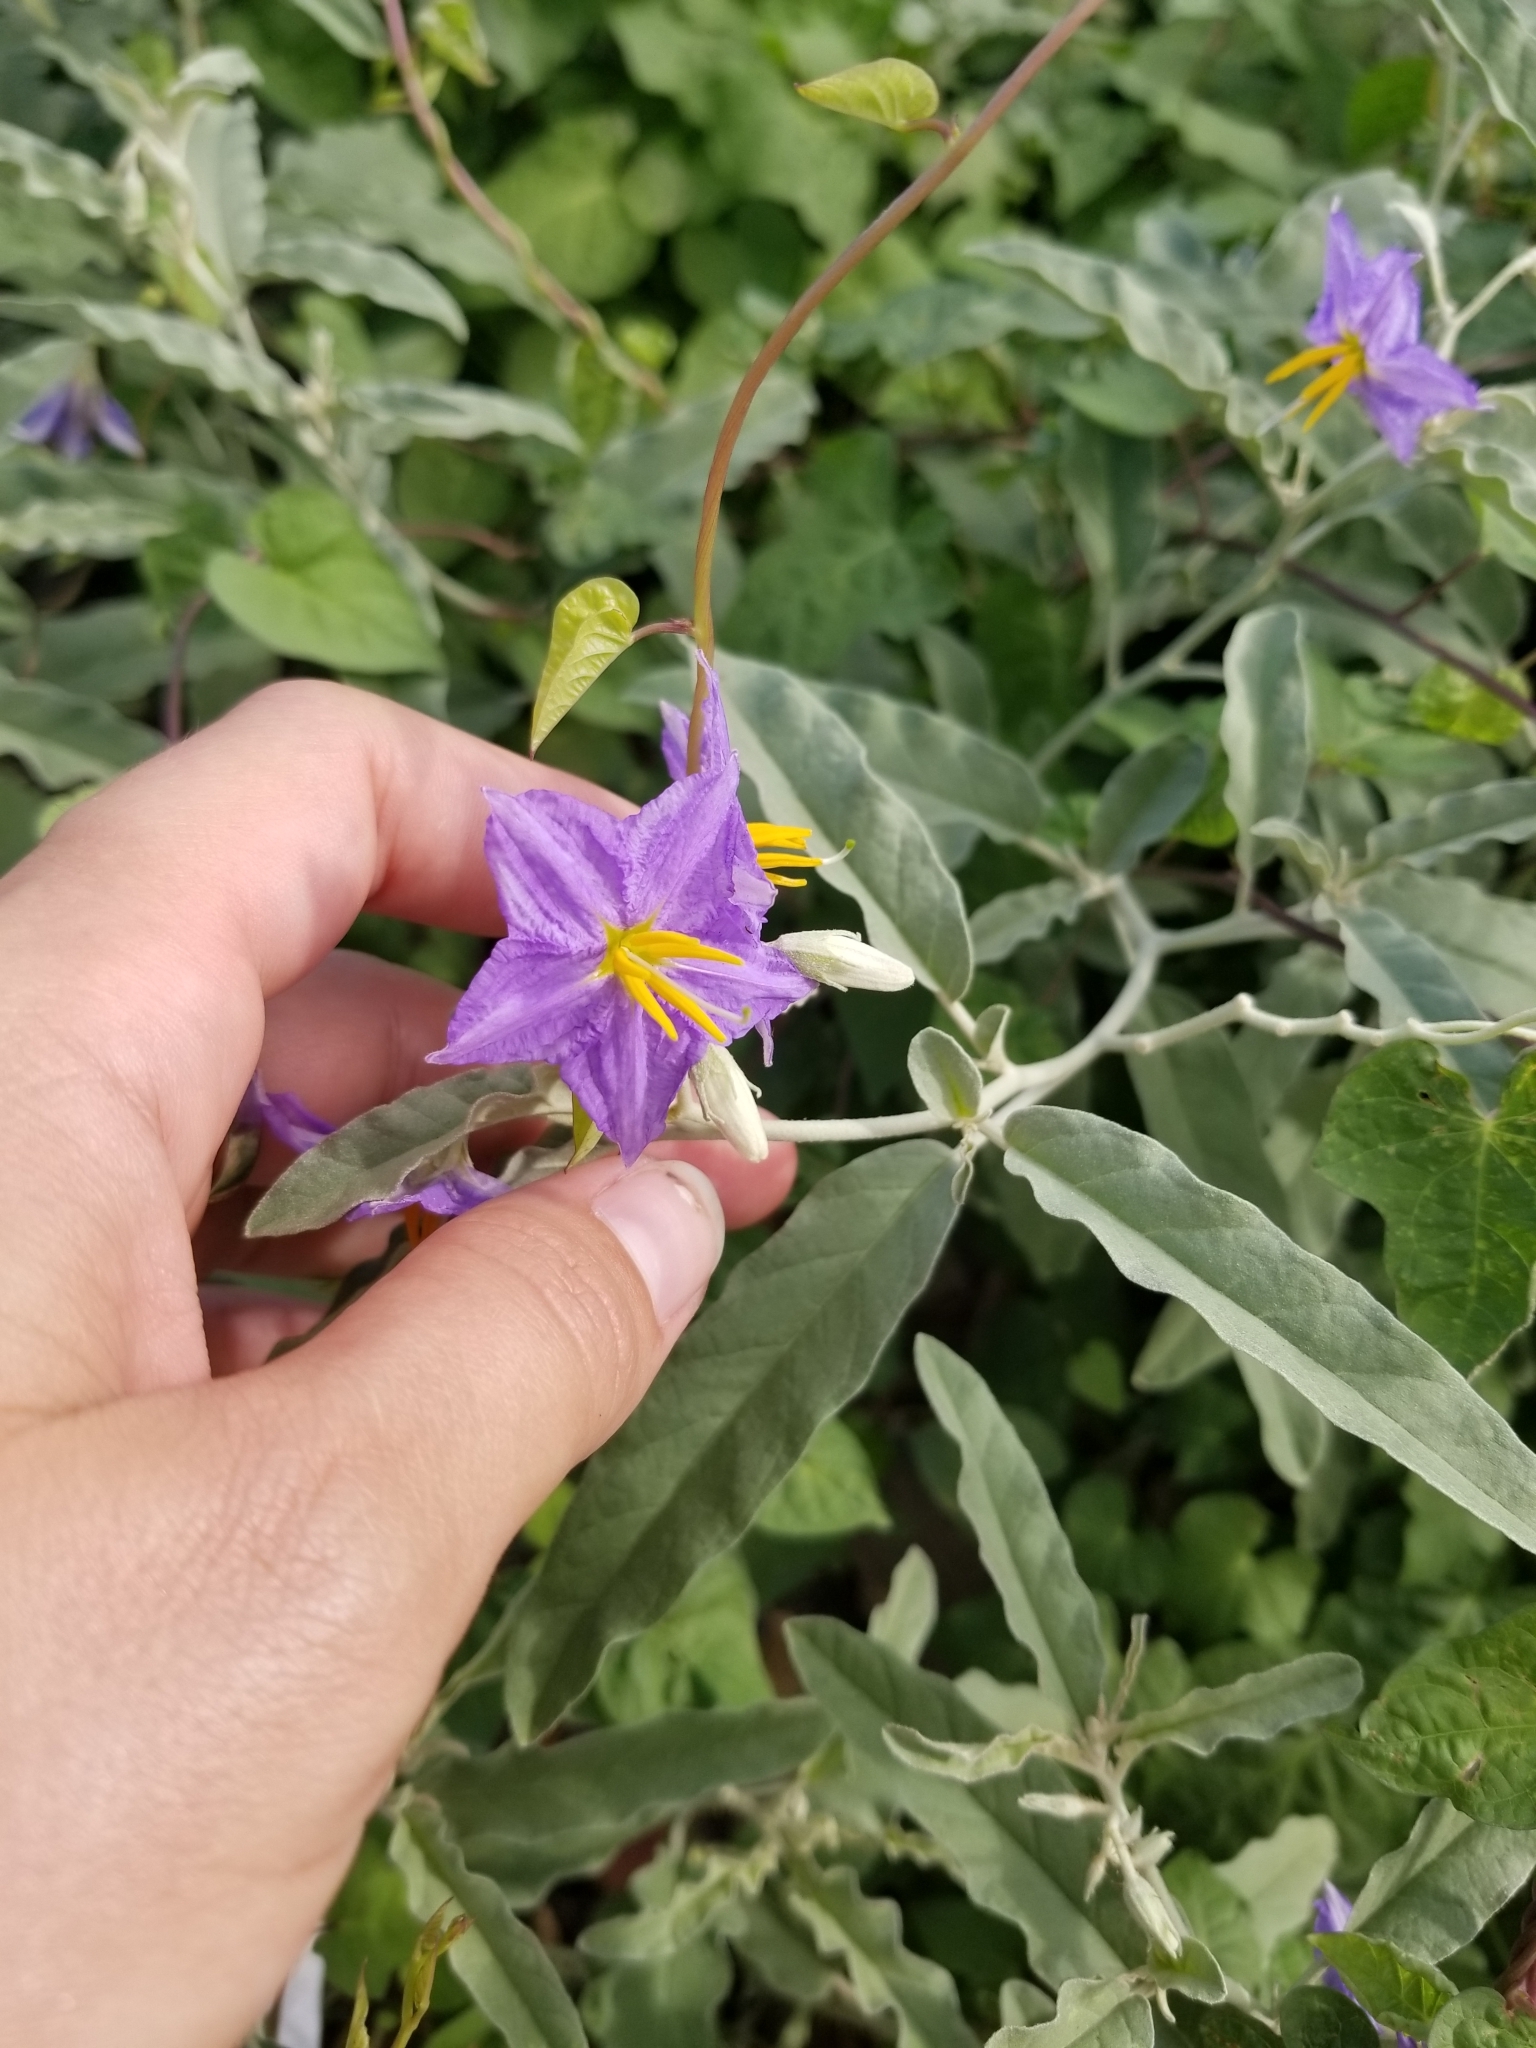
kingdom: Plantae
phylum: Tracheophyta
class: Magnoliopsida
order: Solanales
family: Solanaceae
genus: Solanum
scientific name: Solanum elaeagnifolium
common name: Silverleaf nightshade
